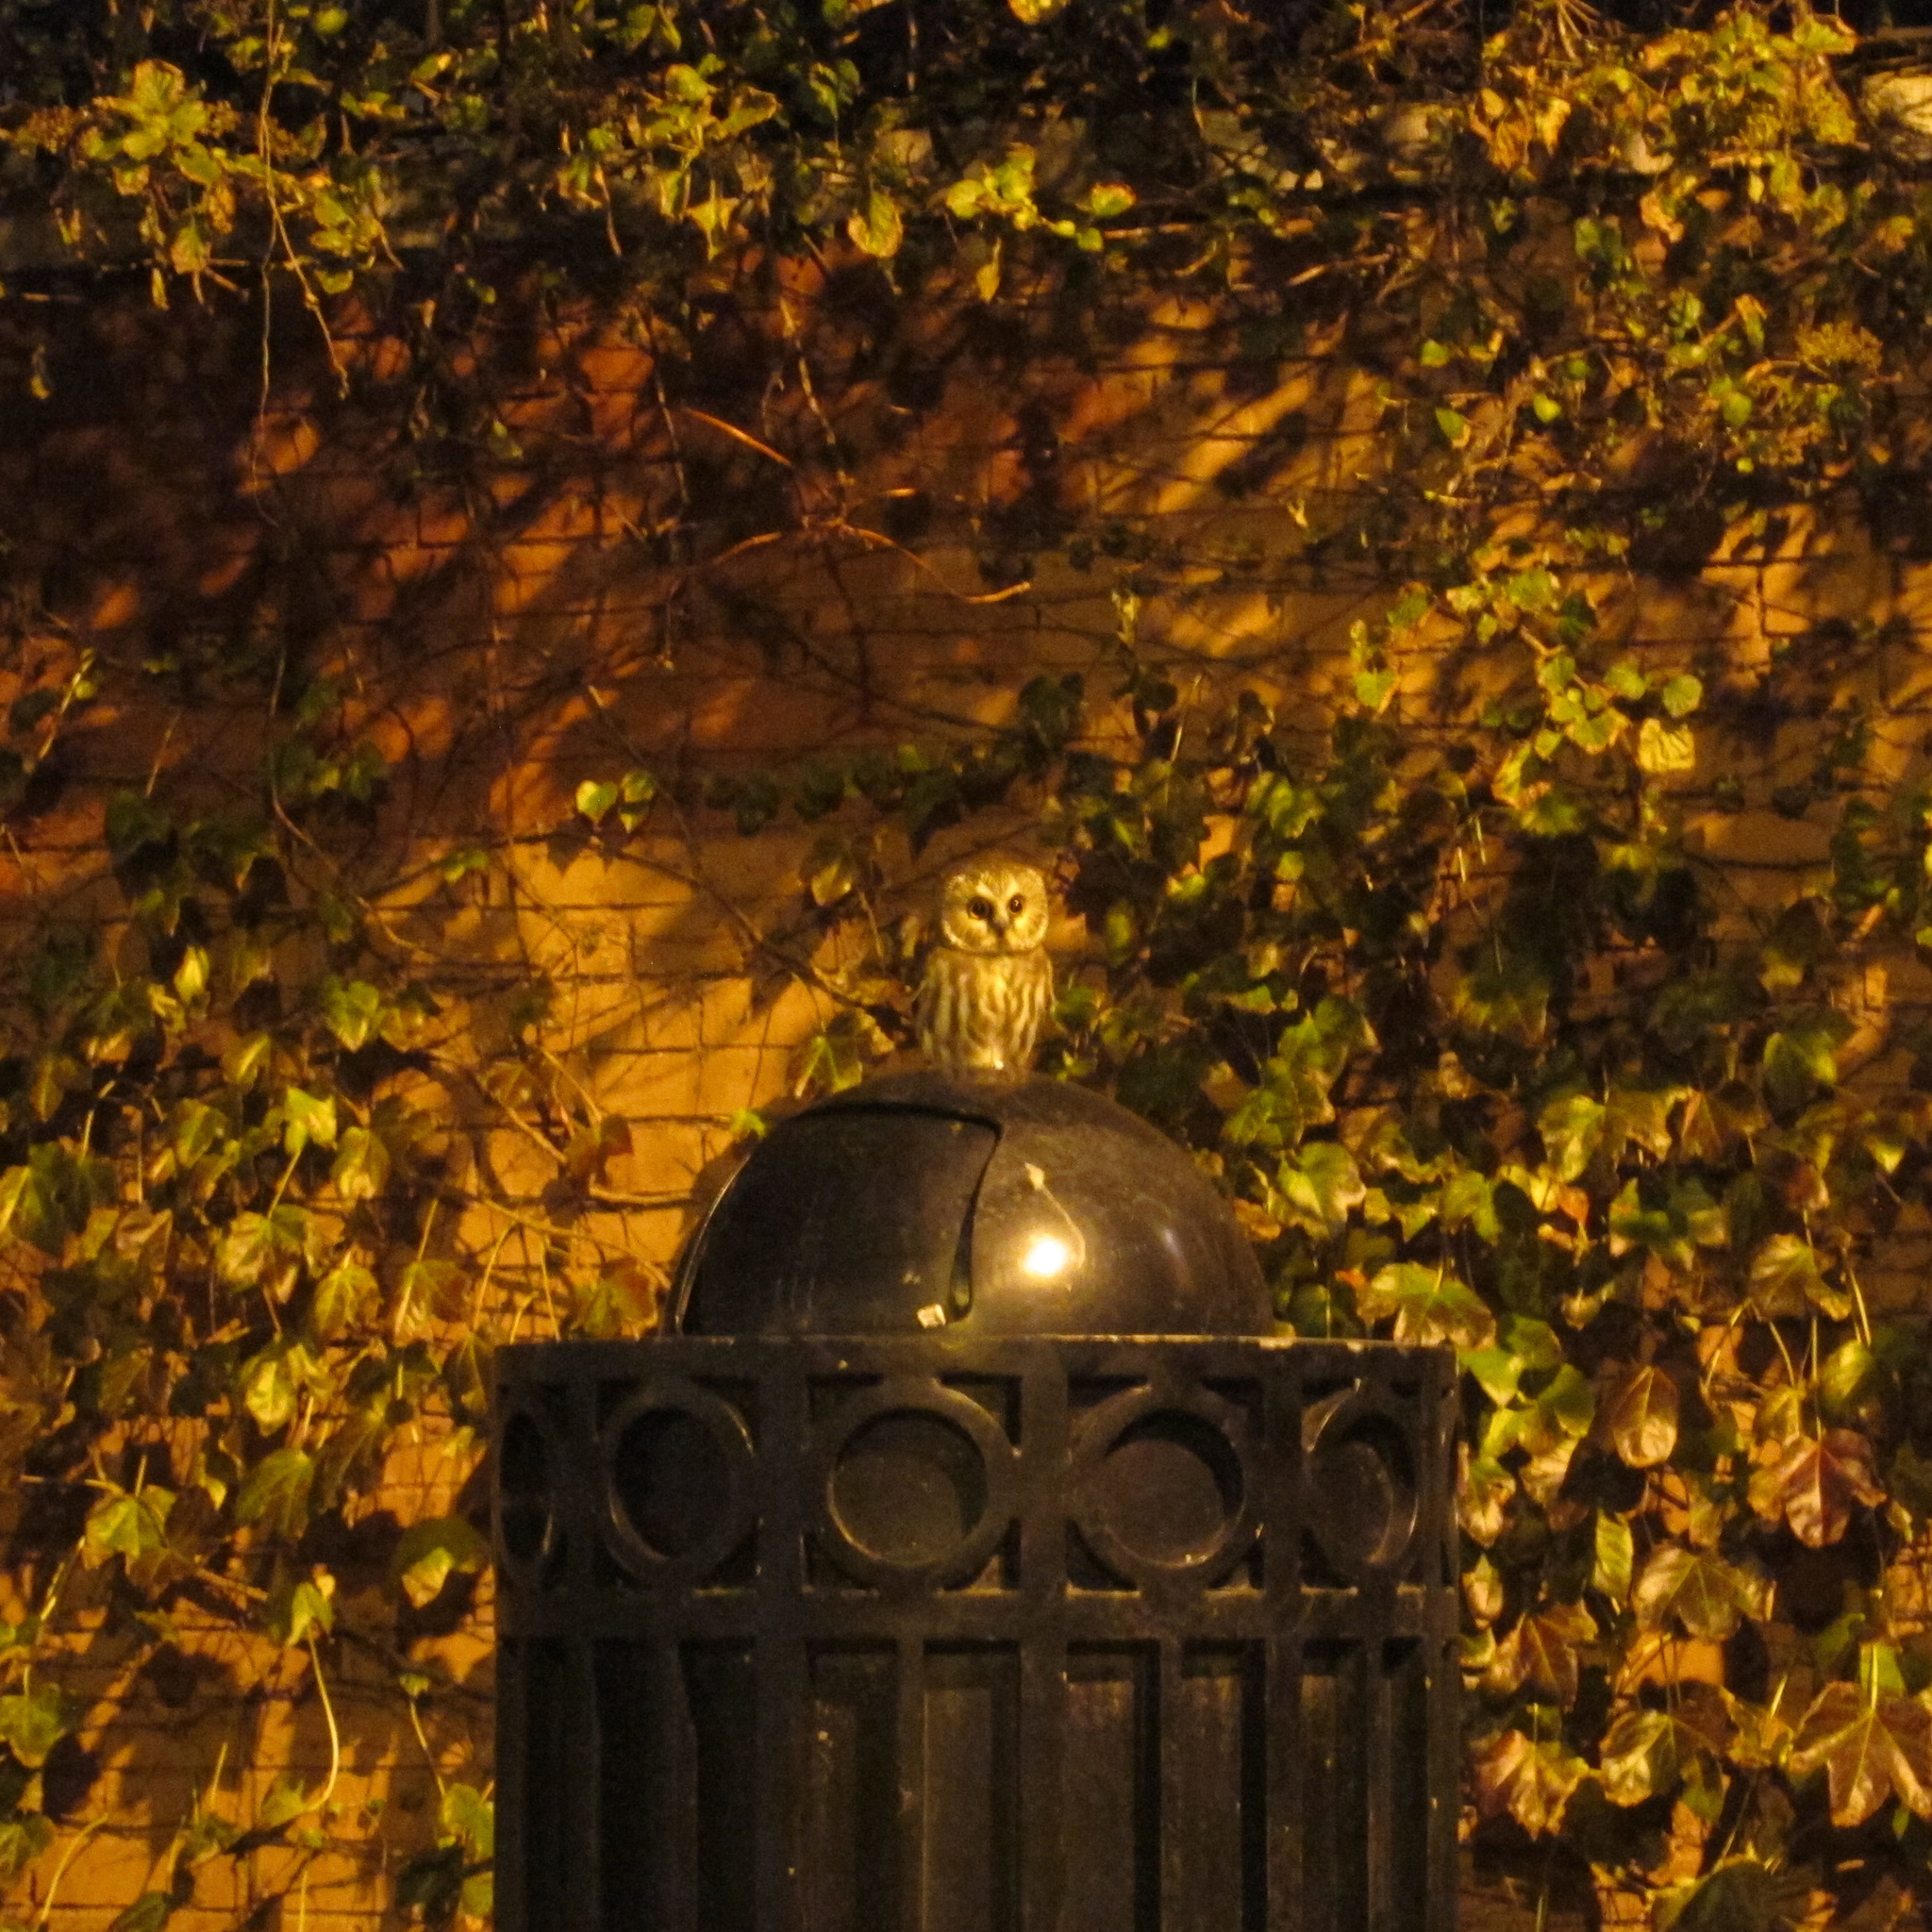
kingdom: Animalia
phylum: Chordata
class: Aves
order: Strigiformes
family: Strigidae
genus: Aegolius
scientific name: Aegolius acadicus
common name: Northern saw-whet owl
